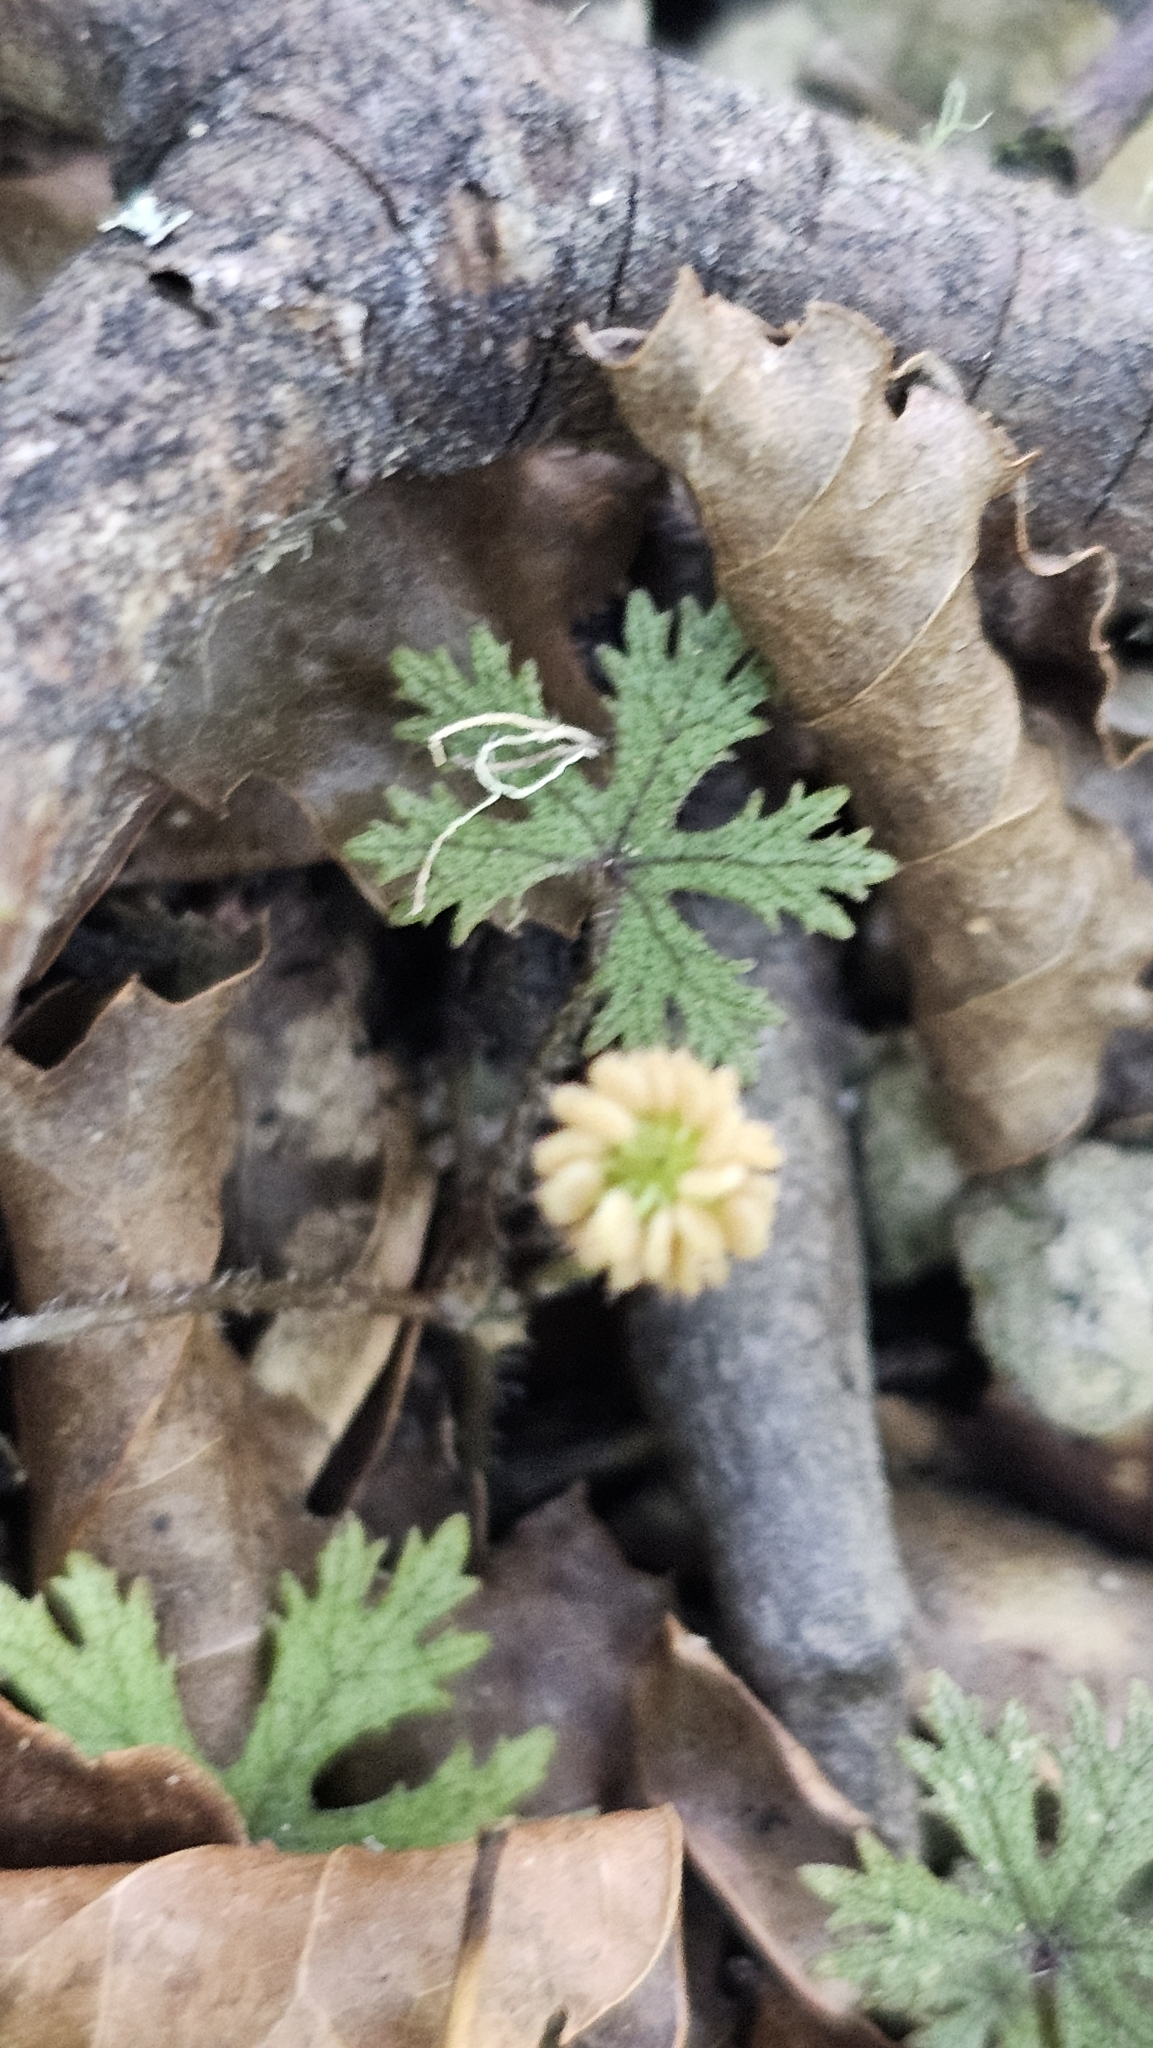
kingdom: Plantae
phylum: Tracheophyta
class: Magnoliopsida
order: Apiales
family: Araliaceae
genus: Hydrocotyle
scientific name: Hydrocotyle dissecta
